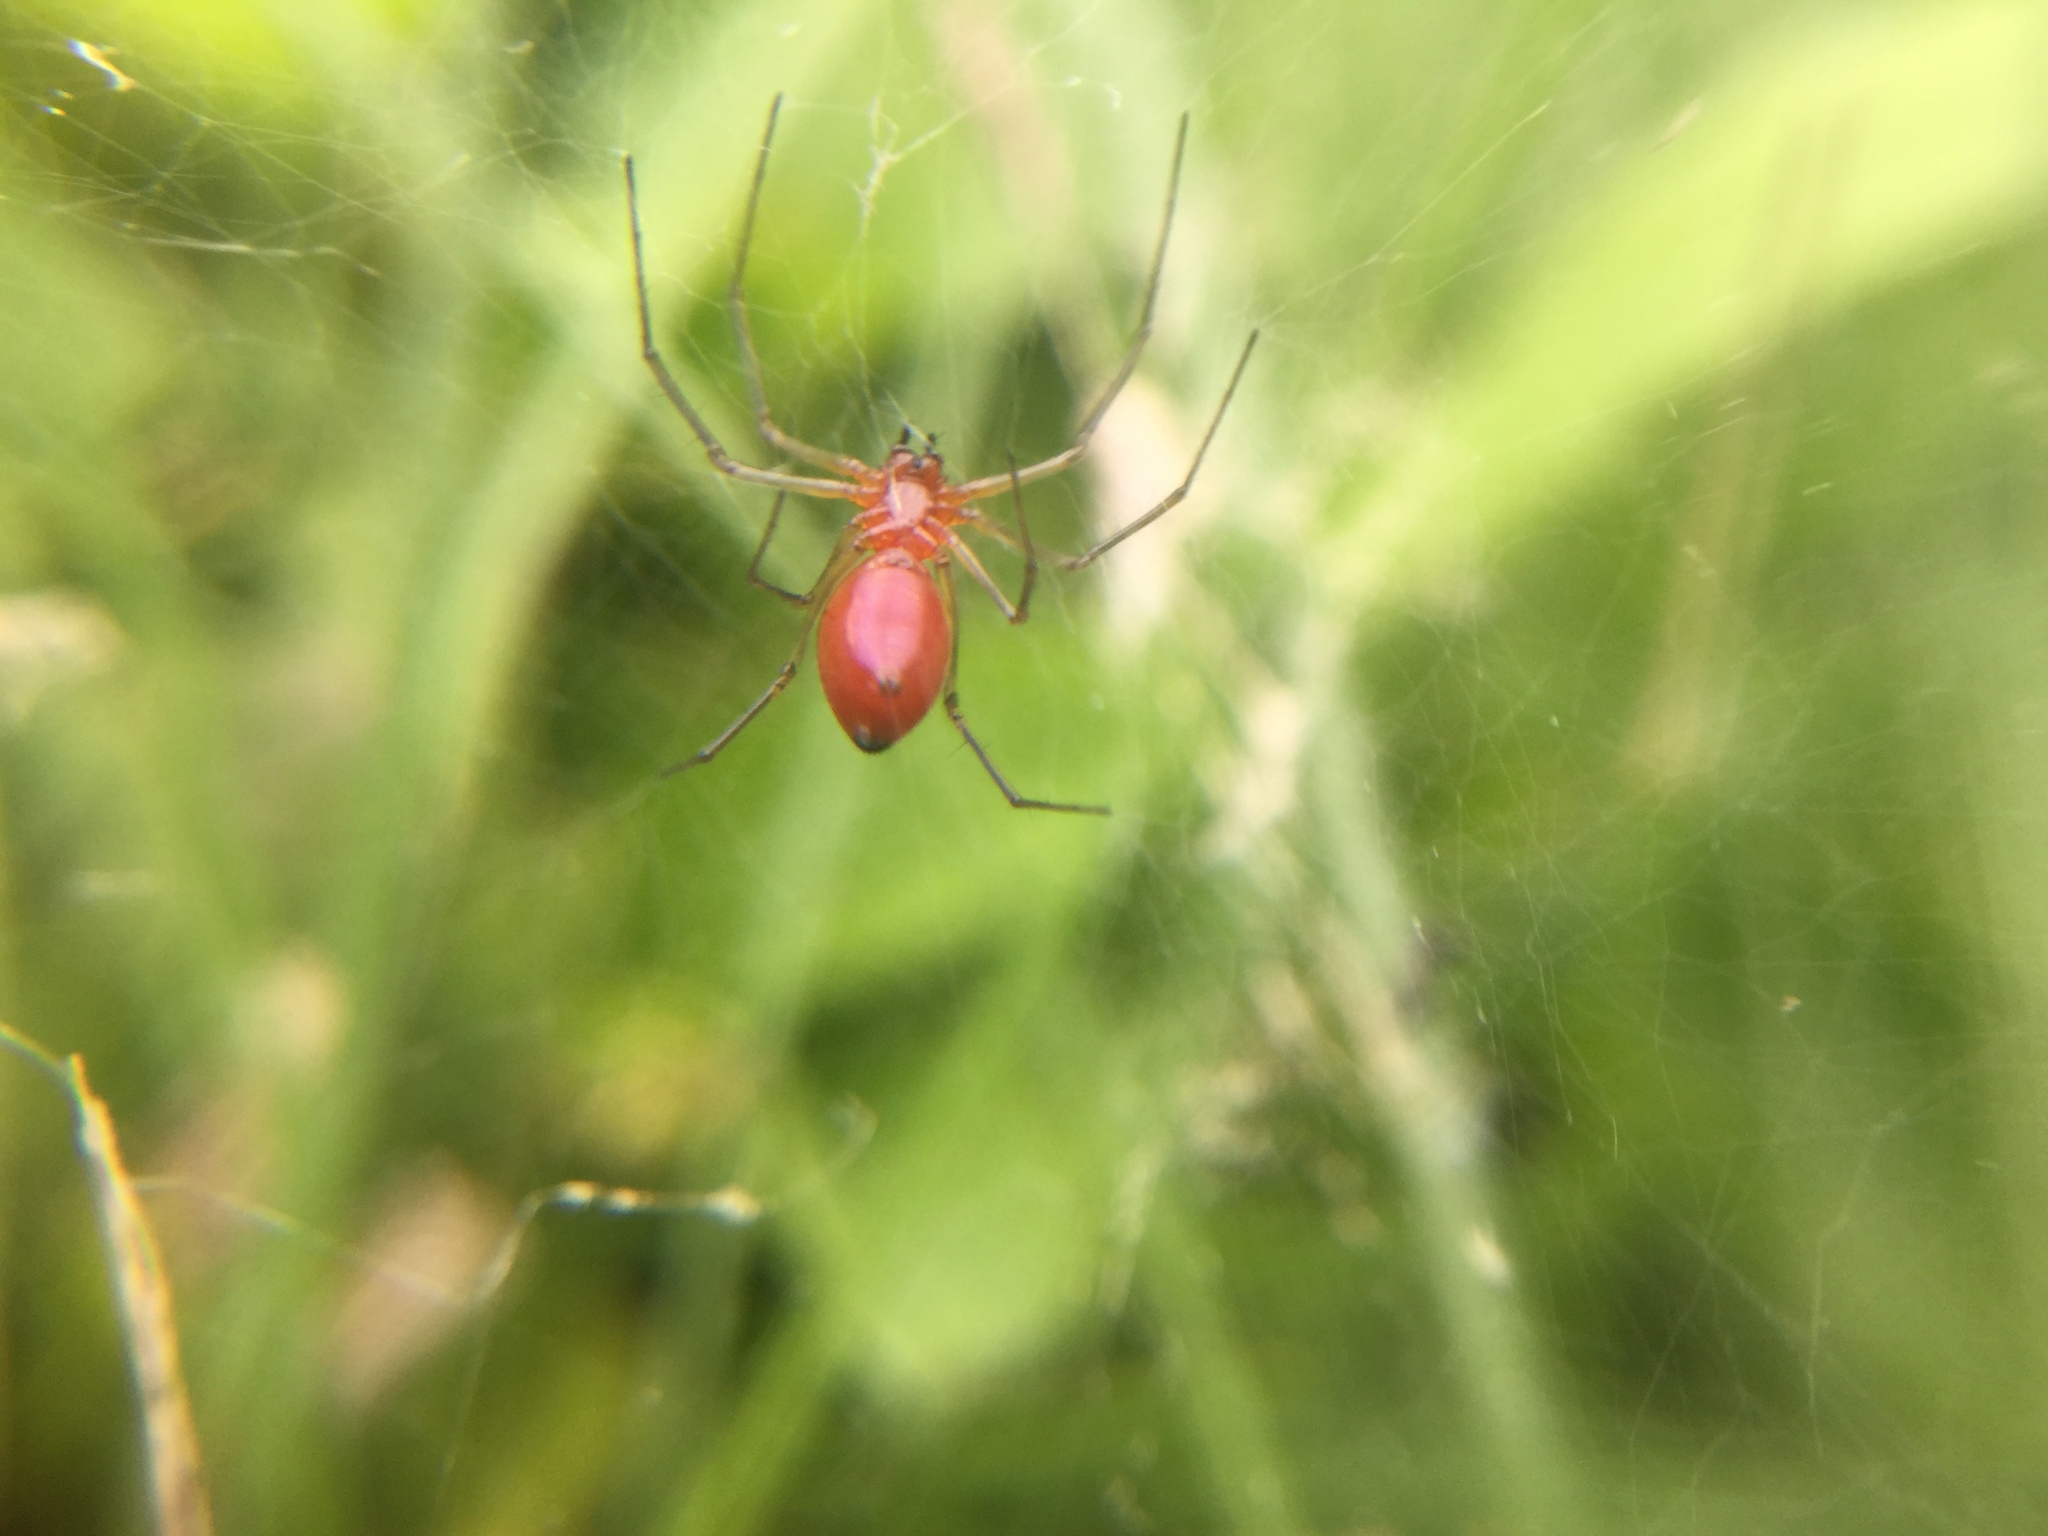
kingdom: Animalia
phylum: Arthropoda
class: Arachnida
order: Araneae
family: Linyphiidae
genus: Florinda
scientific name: Florinda coccinea
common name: Black-tailed red sheetweaver
